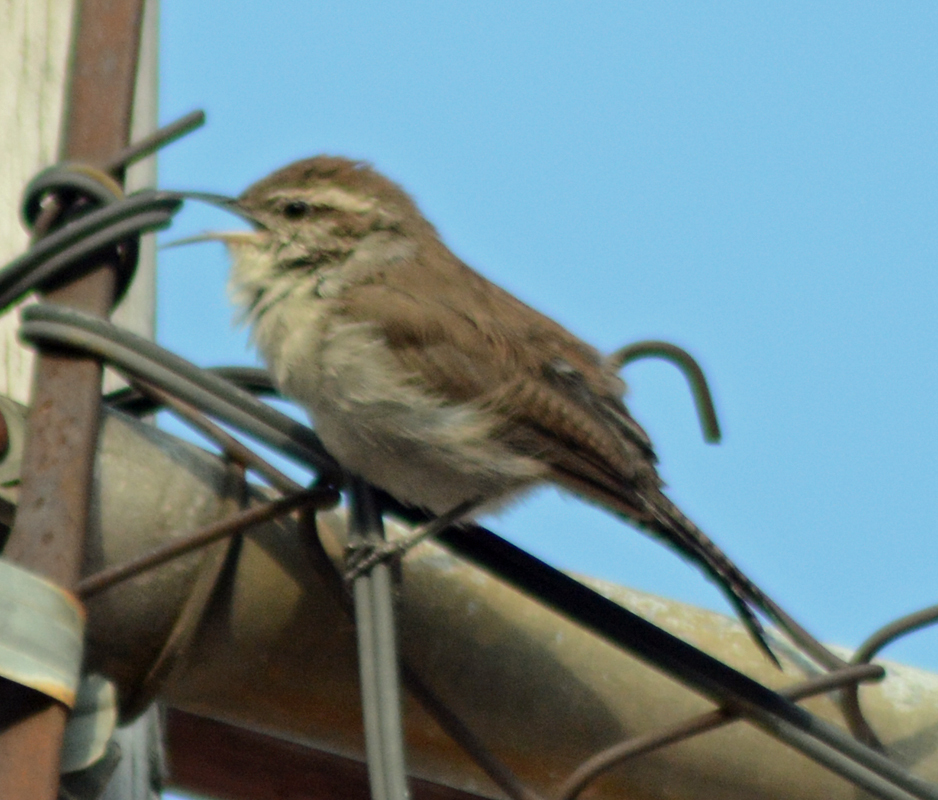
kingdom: Animalia
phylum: Chordata
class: Aves
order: Passeriformes
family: Troglodytidae
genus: Thryomanes
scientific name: Thryomanes bewickii
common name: Bewick's wren
